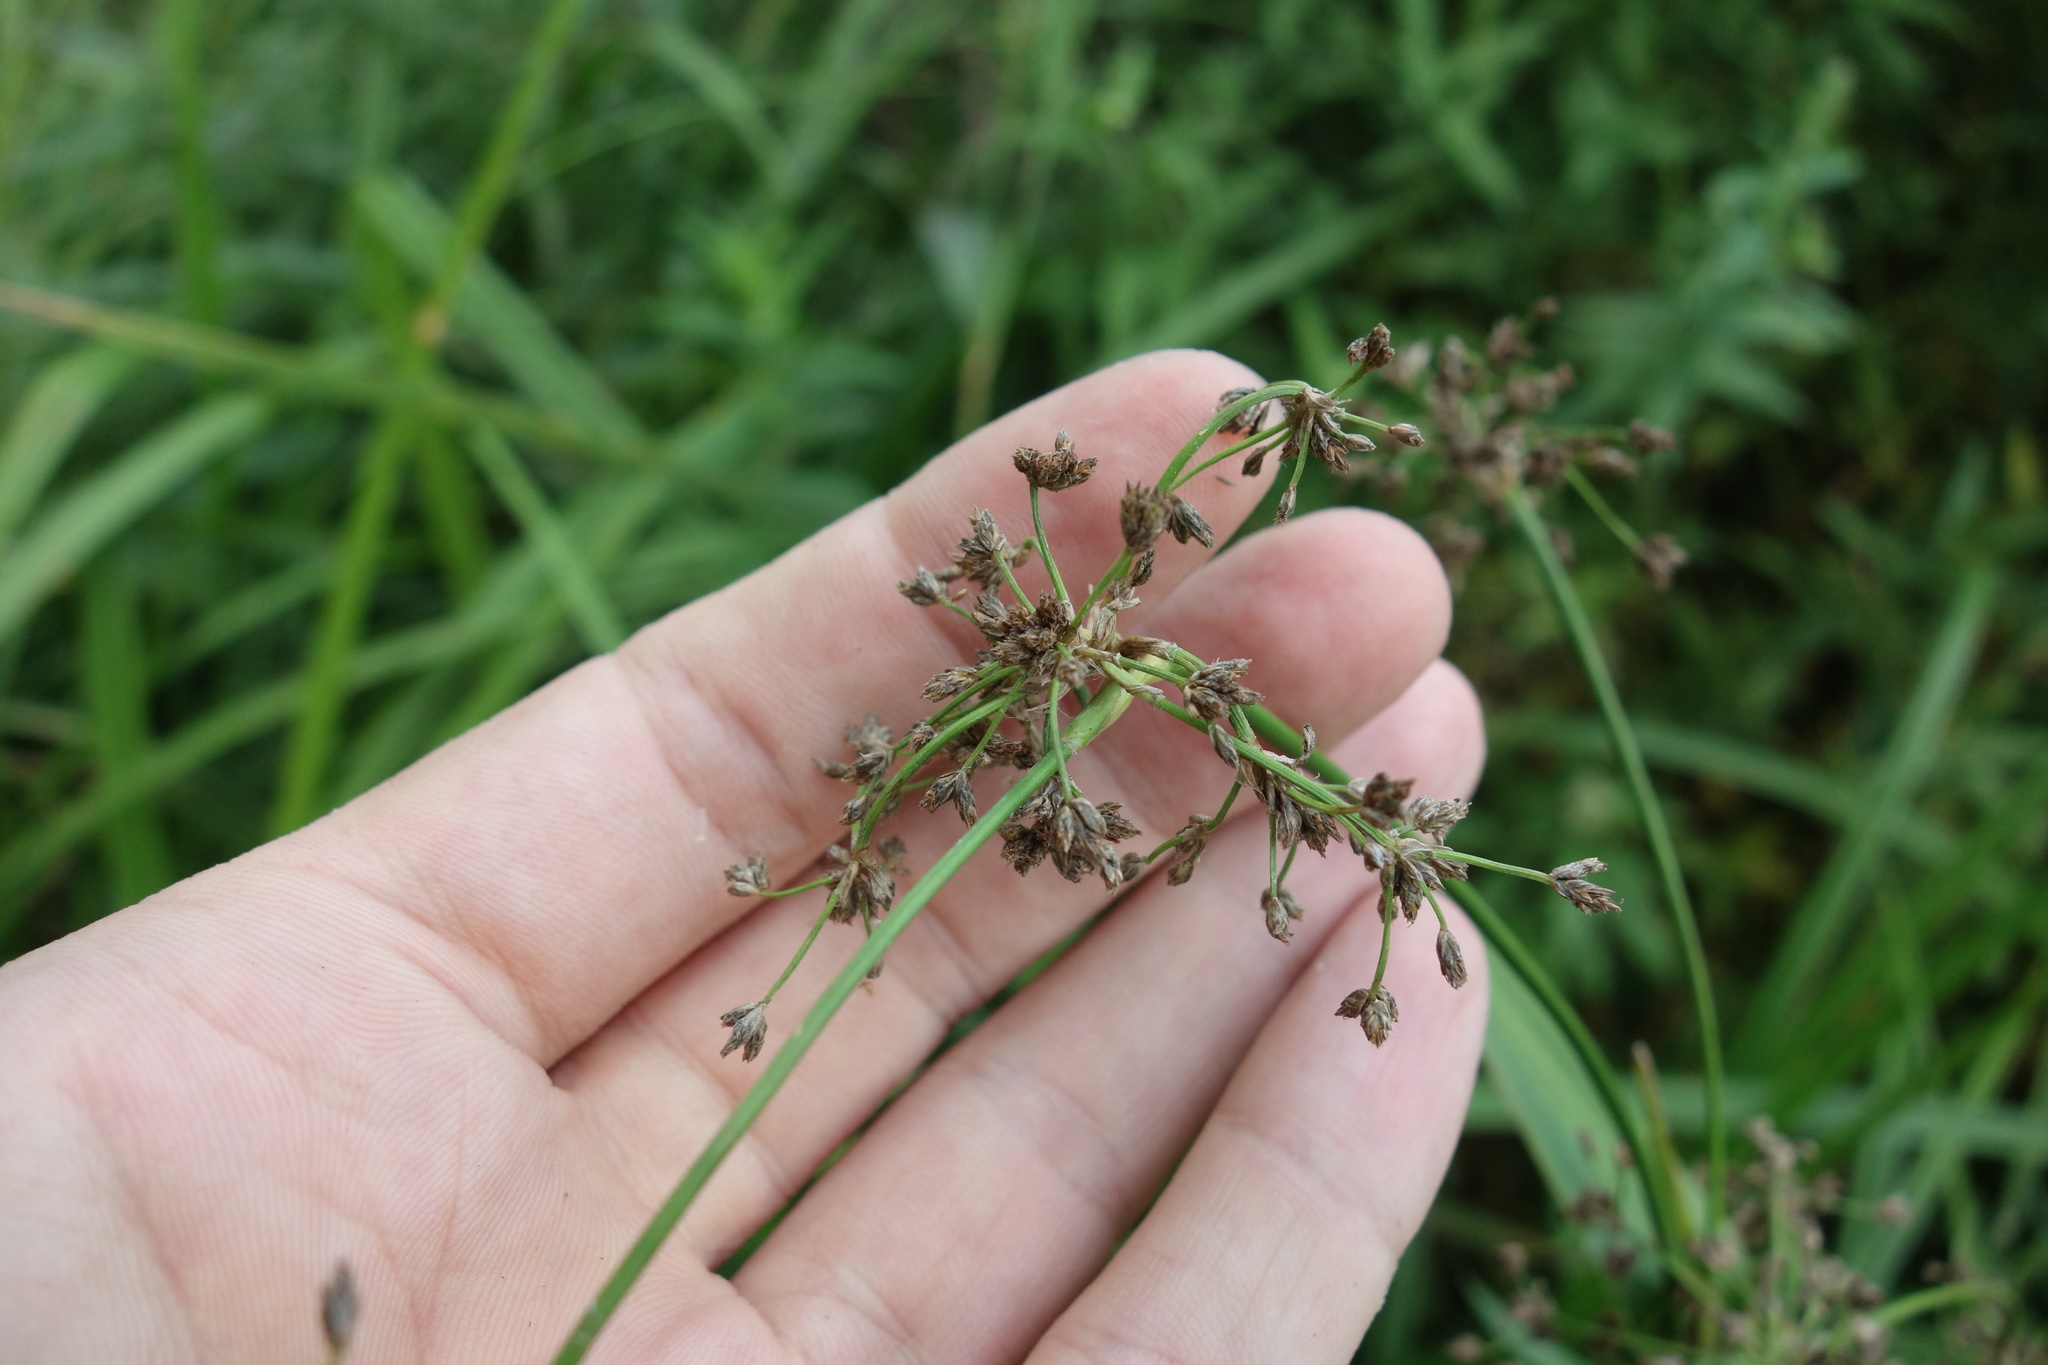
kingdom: Plantae
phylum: Tracheophyta
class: Liliopsida
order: Poales
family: Cyperaceae
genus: Scirpus
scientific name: Scirpus sylvaticus
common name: Wood club-rush
